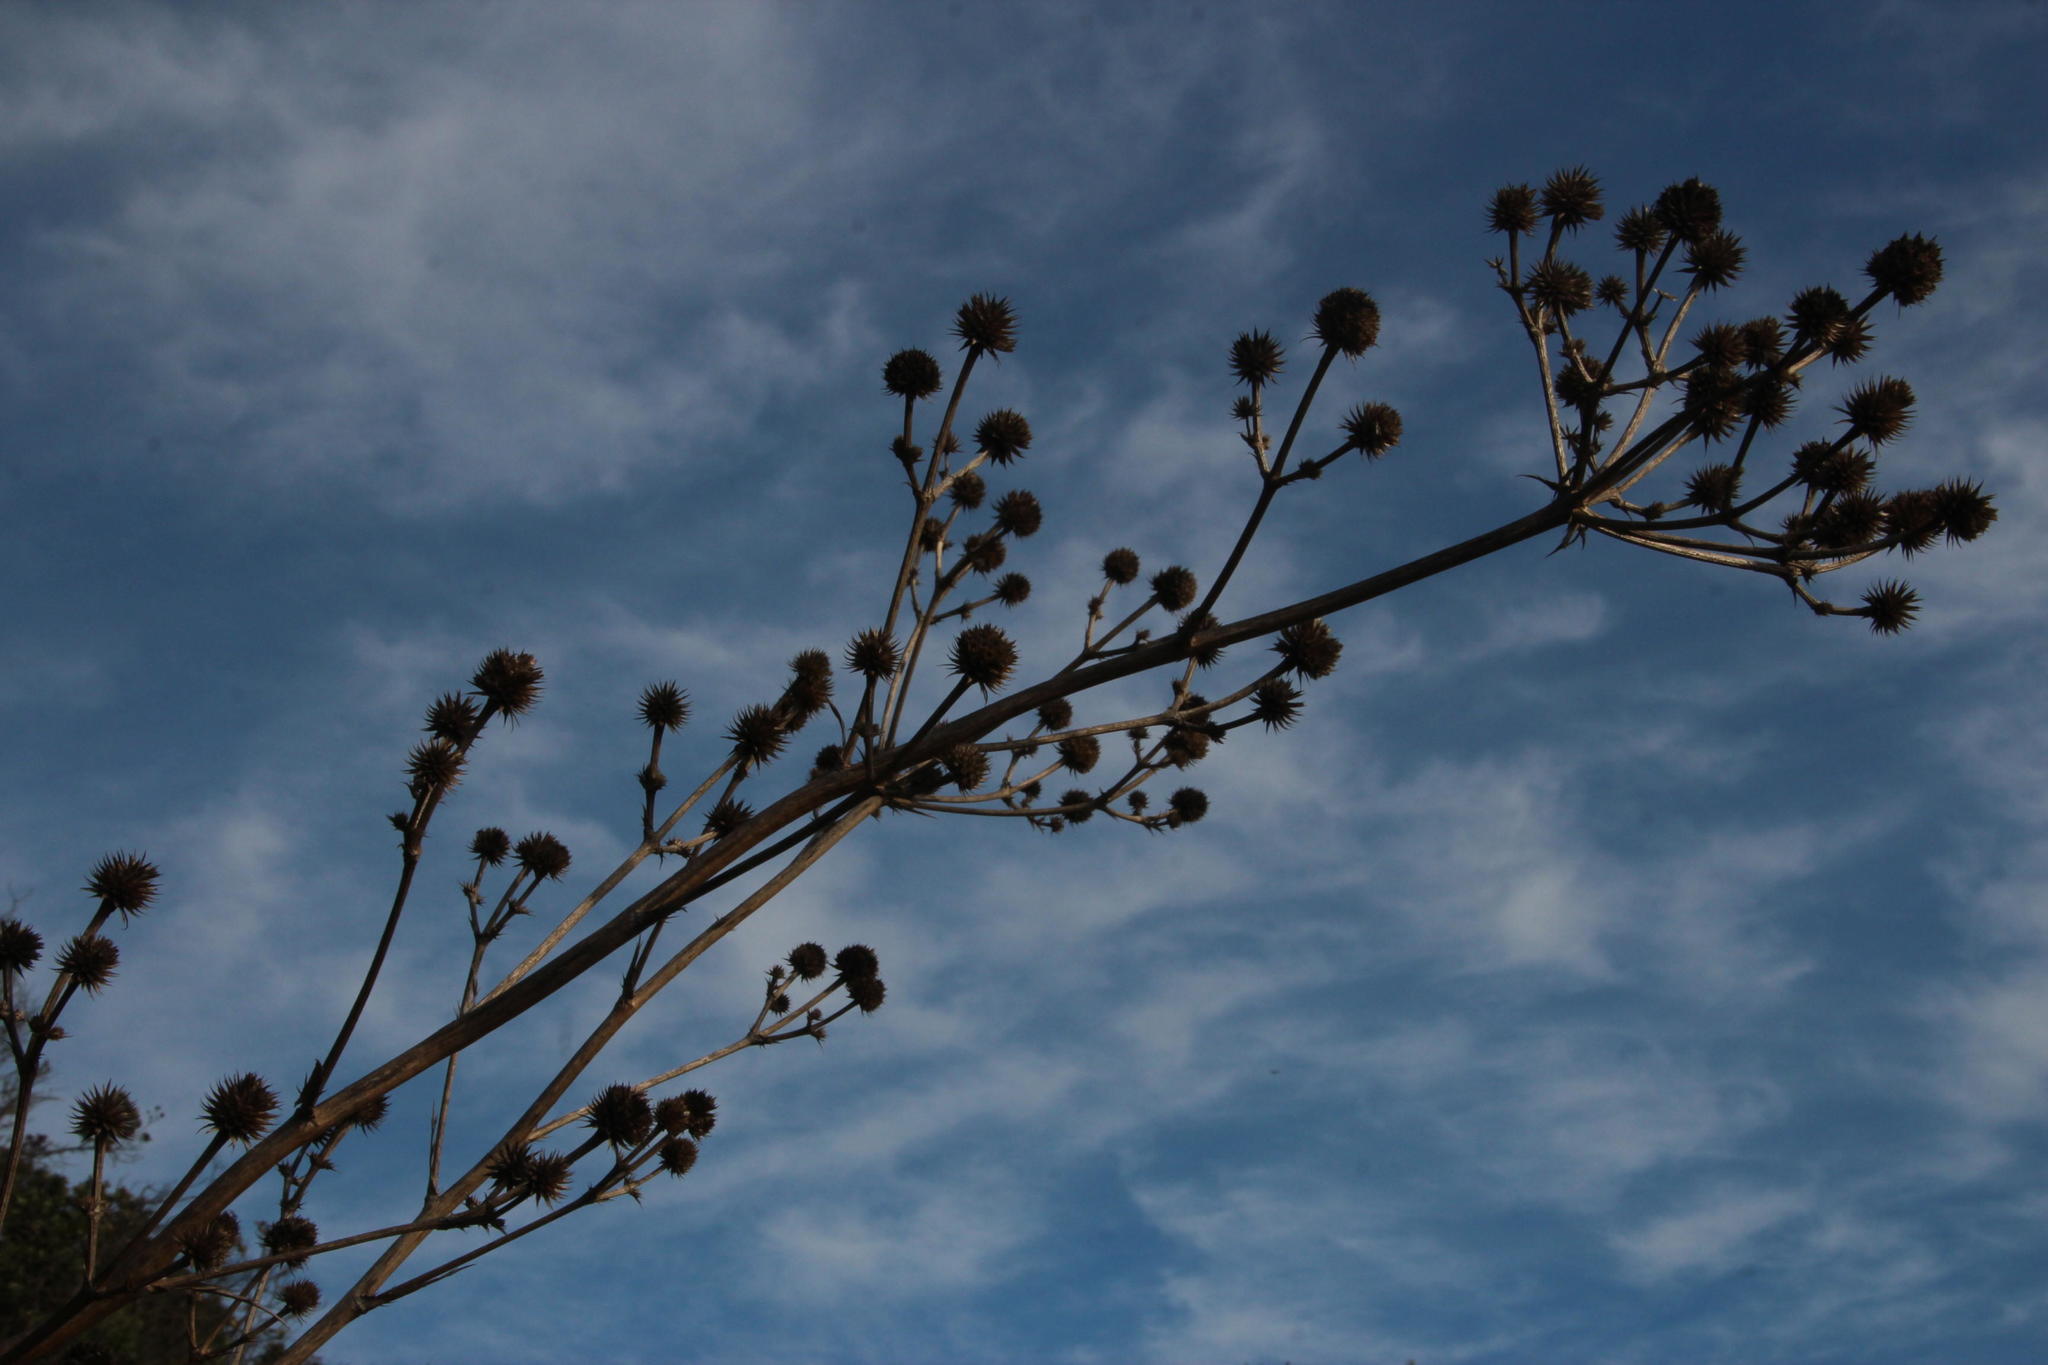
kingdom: Plantae
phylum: Tracheophyta
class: Magnoliopsida
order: Apiales
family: Apiaceae
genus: Eryngium
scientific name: Eryngium humboldtii
